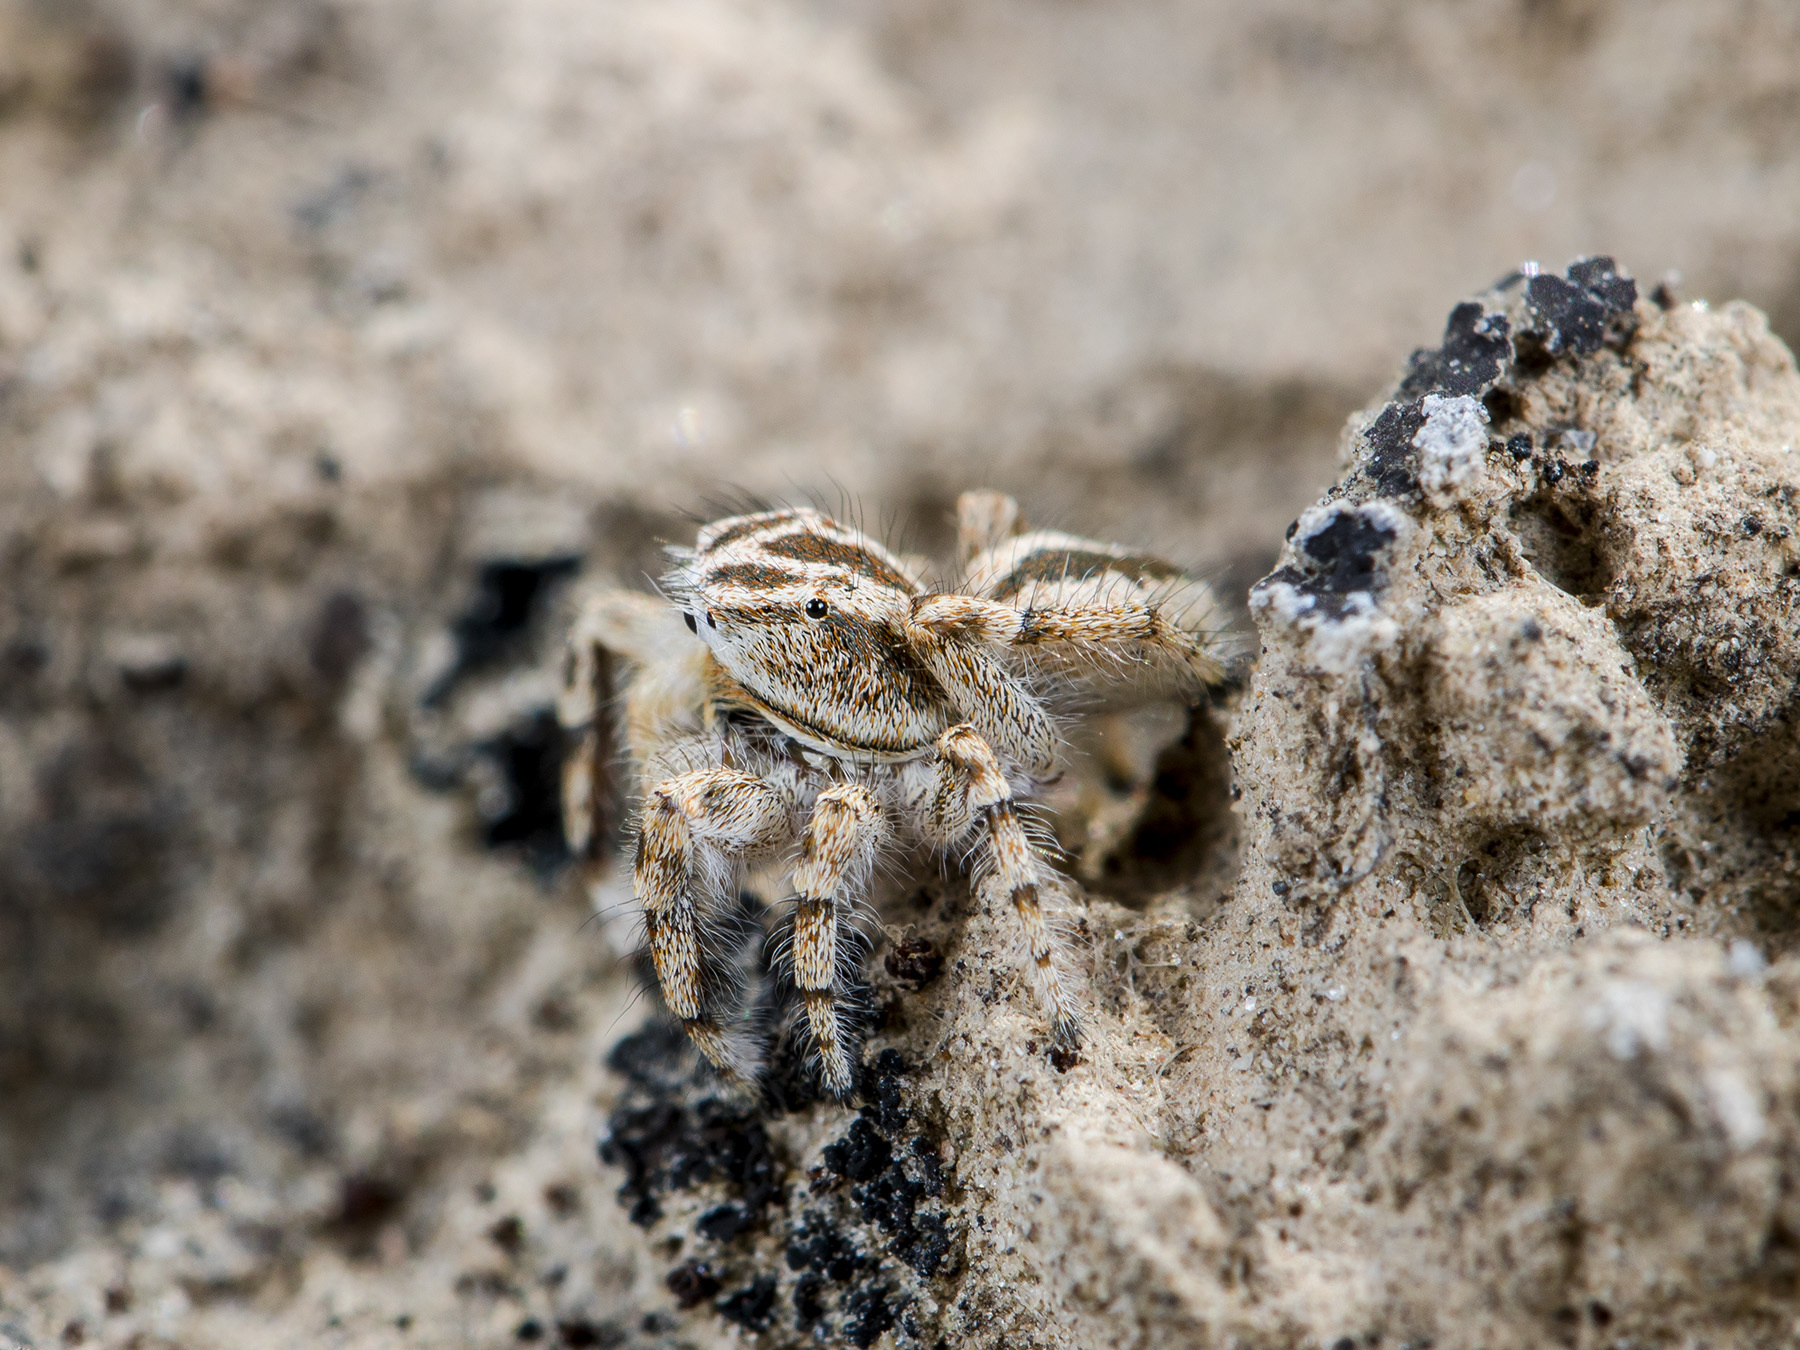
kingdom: Animalia
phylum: Arthropoda
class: Arachnida
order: Araneae
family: Salticidae
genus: Pseudomogrus
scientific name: Pseudomogrus guseinovi
